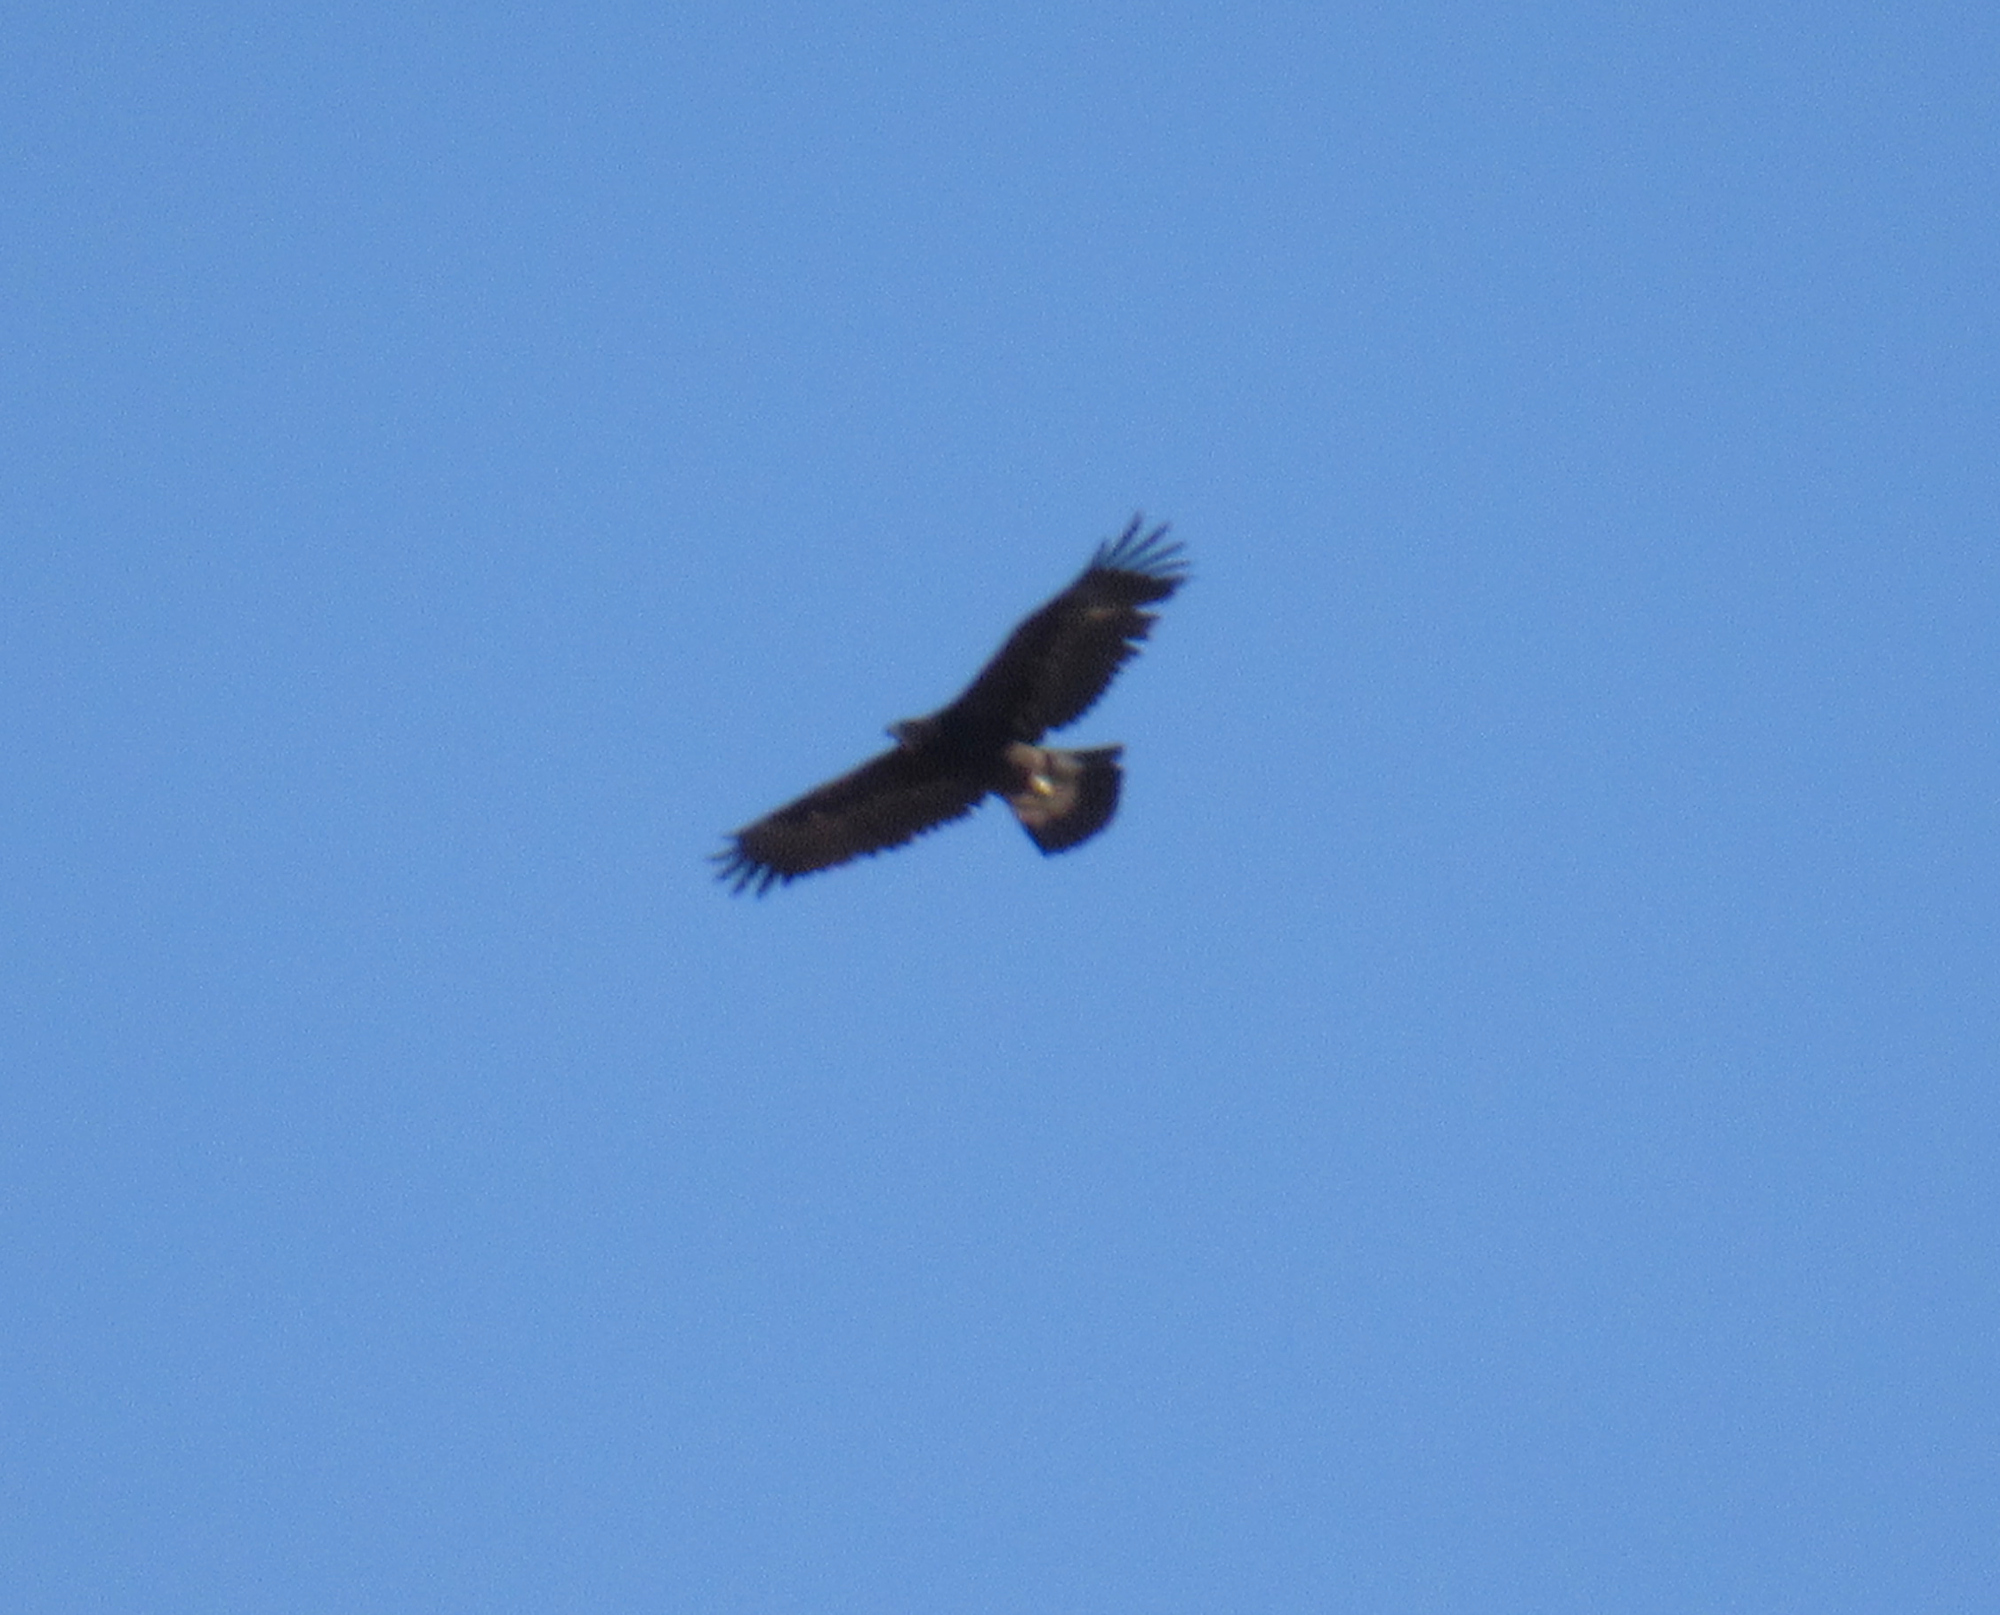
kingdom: Animalia
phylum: Chordata
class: Aves
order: Accipitriformes
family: Accipitridae
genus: Aquila
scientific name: Aquila chrysaetos
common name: Golden eagle
